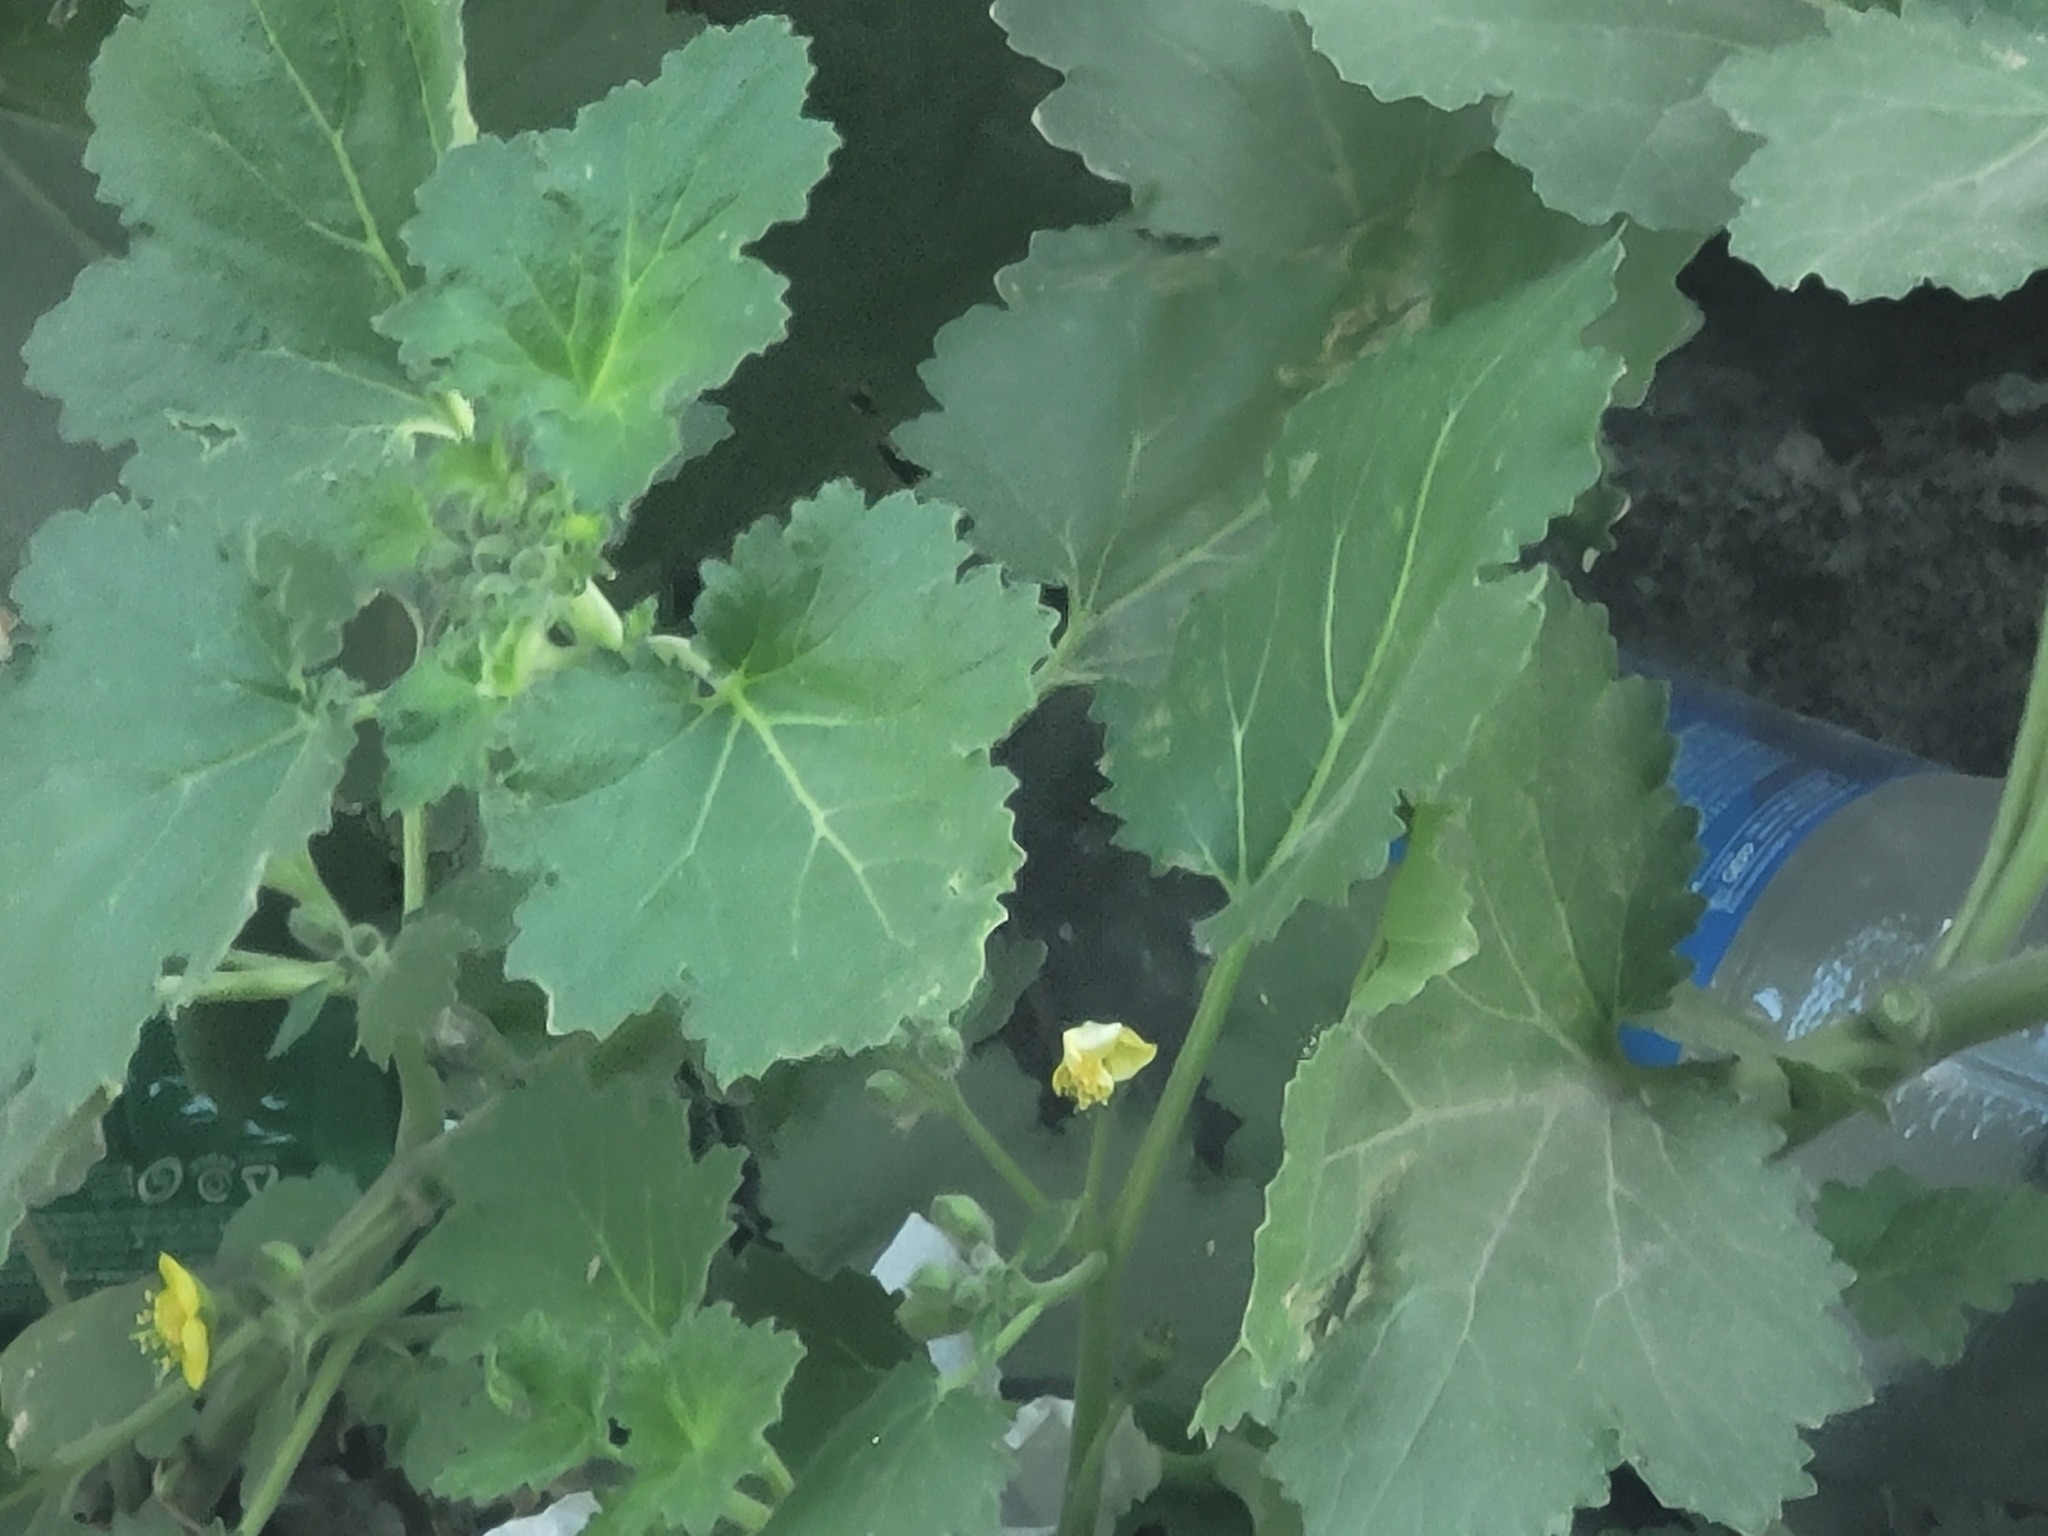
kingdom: Plantae
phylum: Tracheophyta
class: Magnoliopsida
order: Cornales
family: Loasaceae
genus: Eucnide
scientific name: Eucnide lobata
